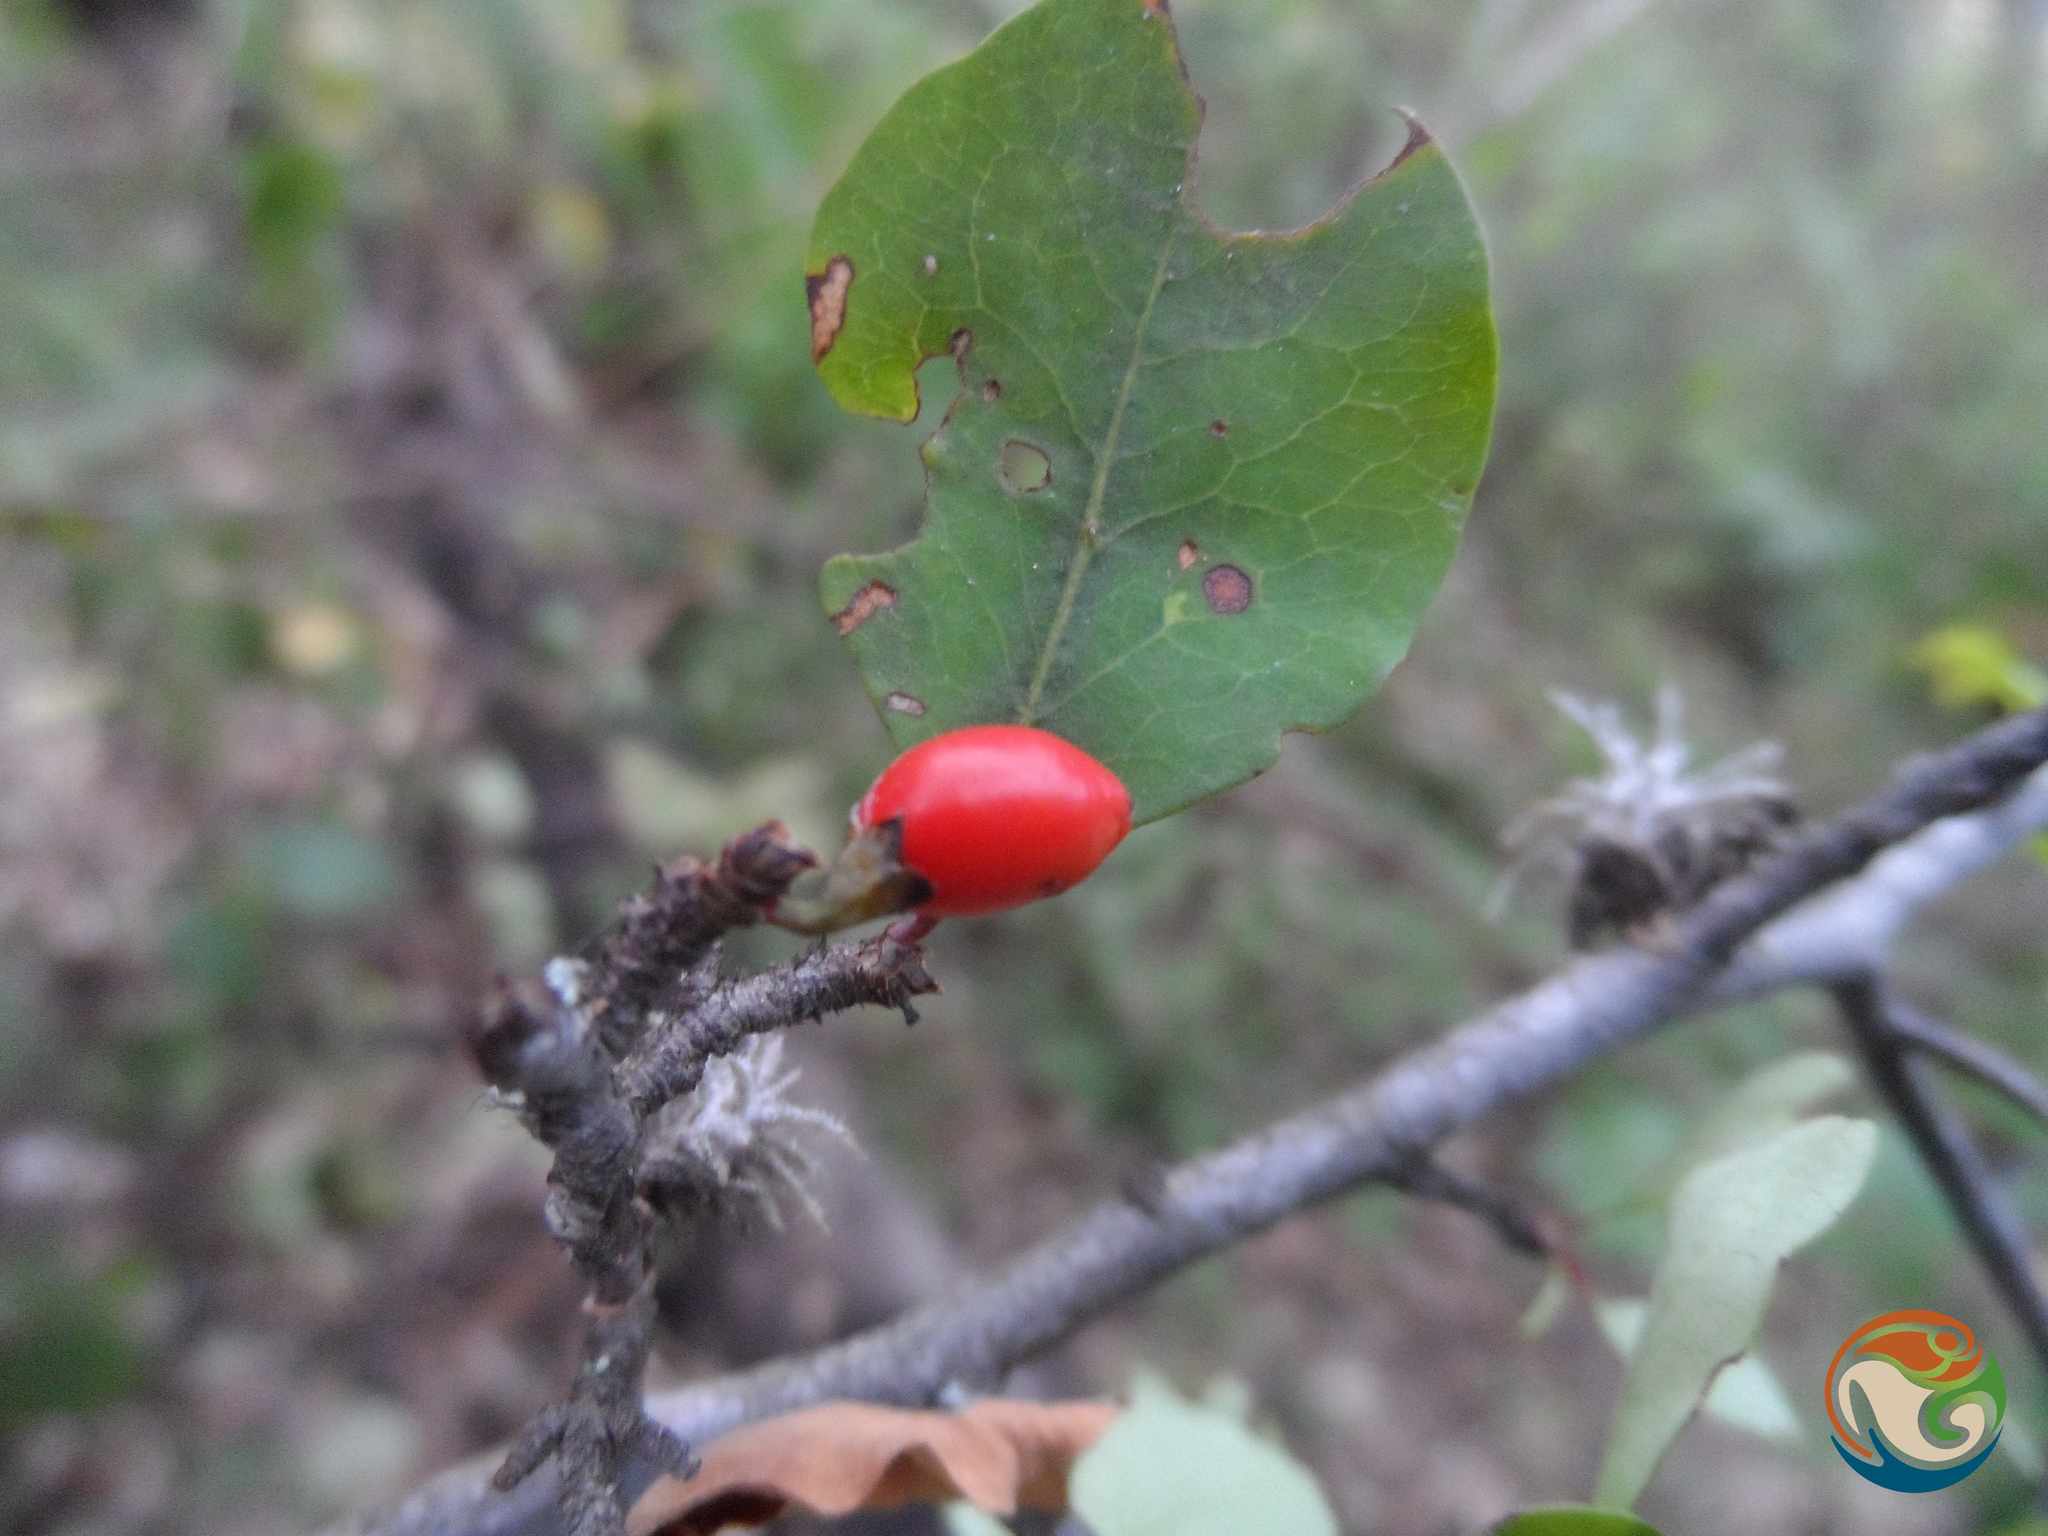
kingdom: Plantae
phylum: Tracheophyta
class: Magnoliopsida
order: Malpighiales
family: Erythroxylaceae
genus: Erythroxylum
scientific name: Erythroxylum rotundifolium
